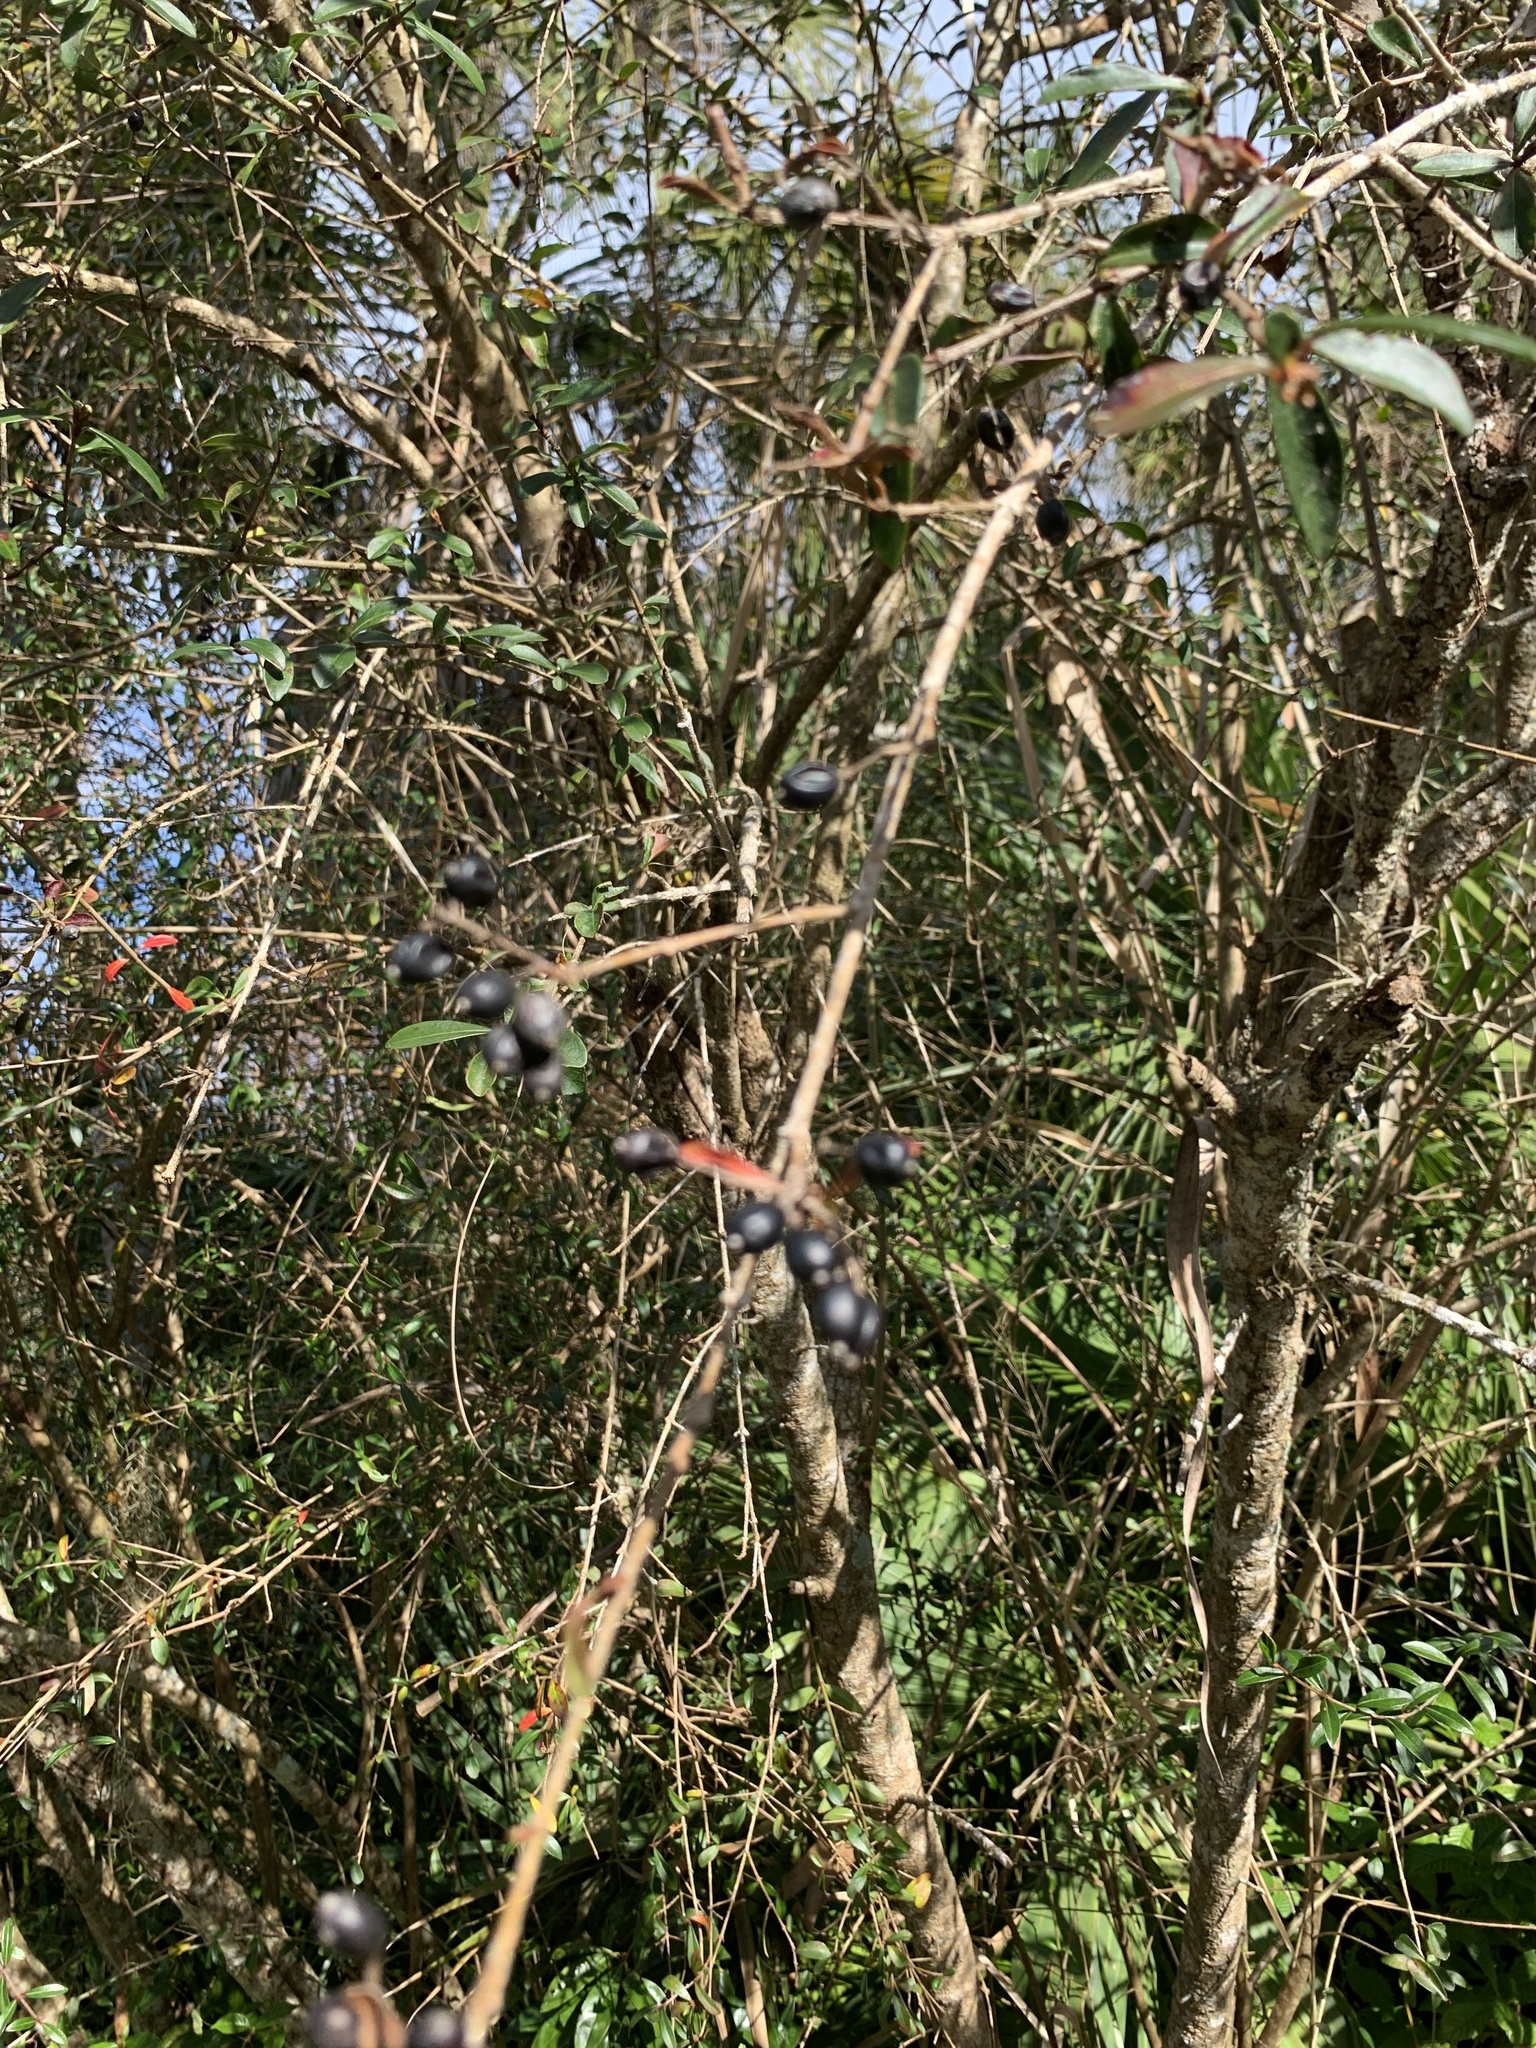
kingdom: Plantae
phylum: Tracheophyta
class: Magnoliopsida
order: Dipsacales
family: Viburnaceae
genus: Viburnum
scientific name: Viburnum obovatum
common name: Walter's viburnum
